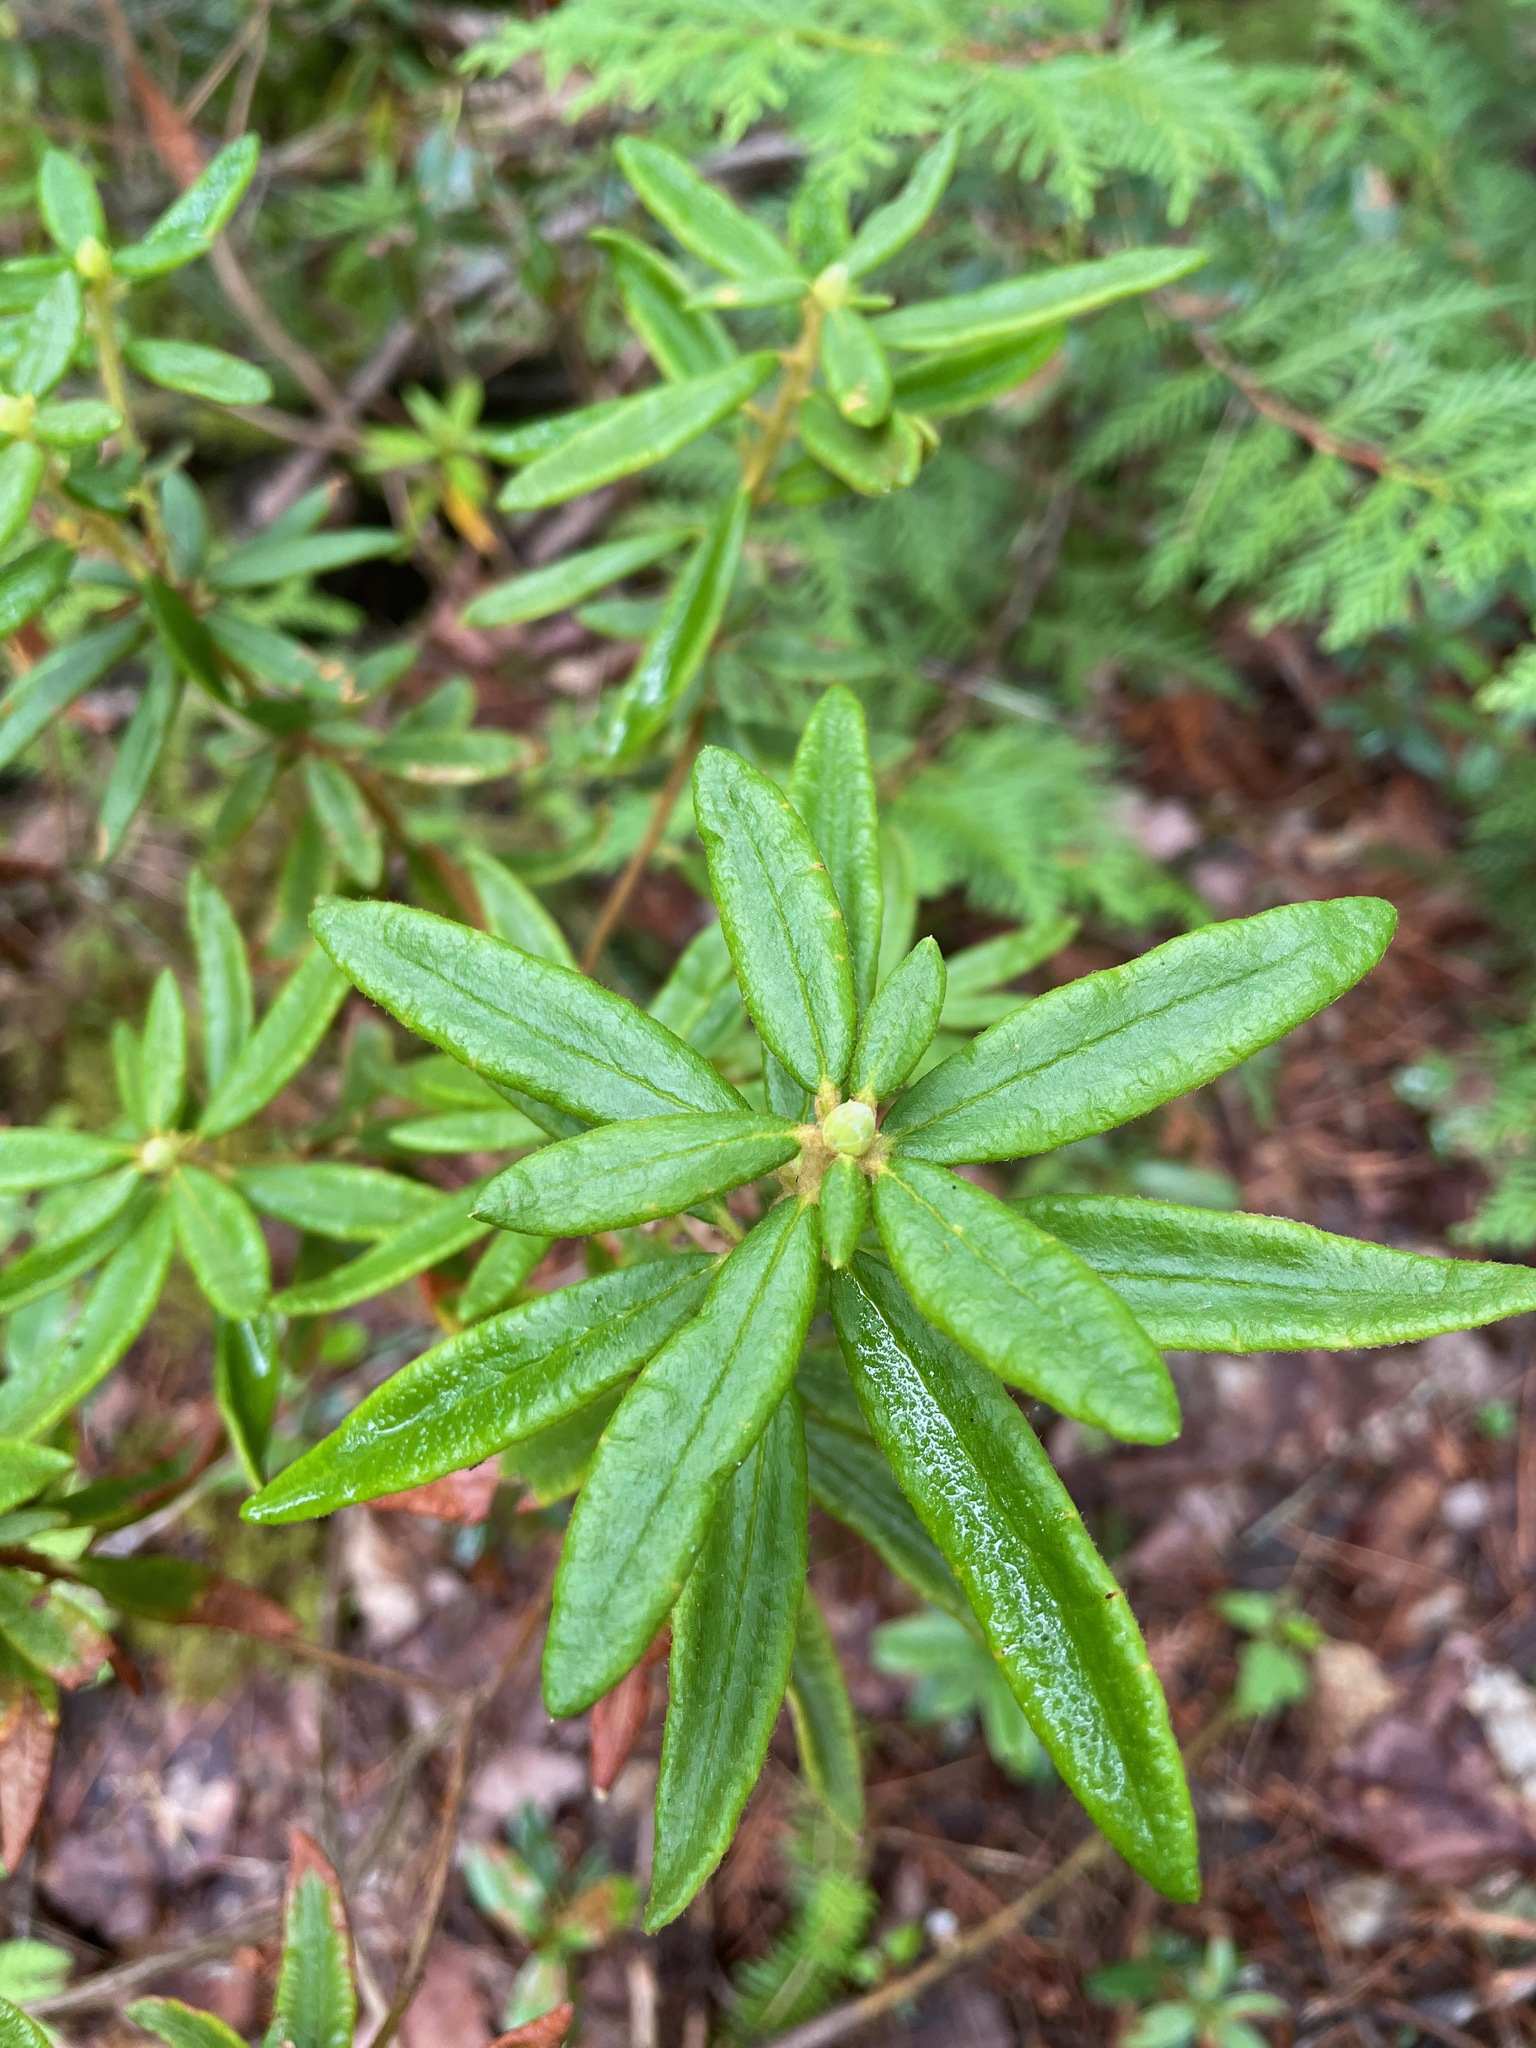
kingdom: Plantae
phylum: Tracheophyta
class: Magnoliopsida
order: Ericales
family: Ericaceae
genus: Rhododendron
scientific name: Rhododendron groenlandicum
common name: Bog labrador tea
